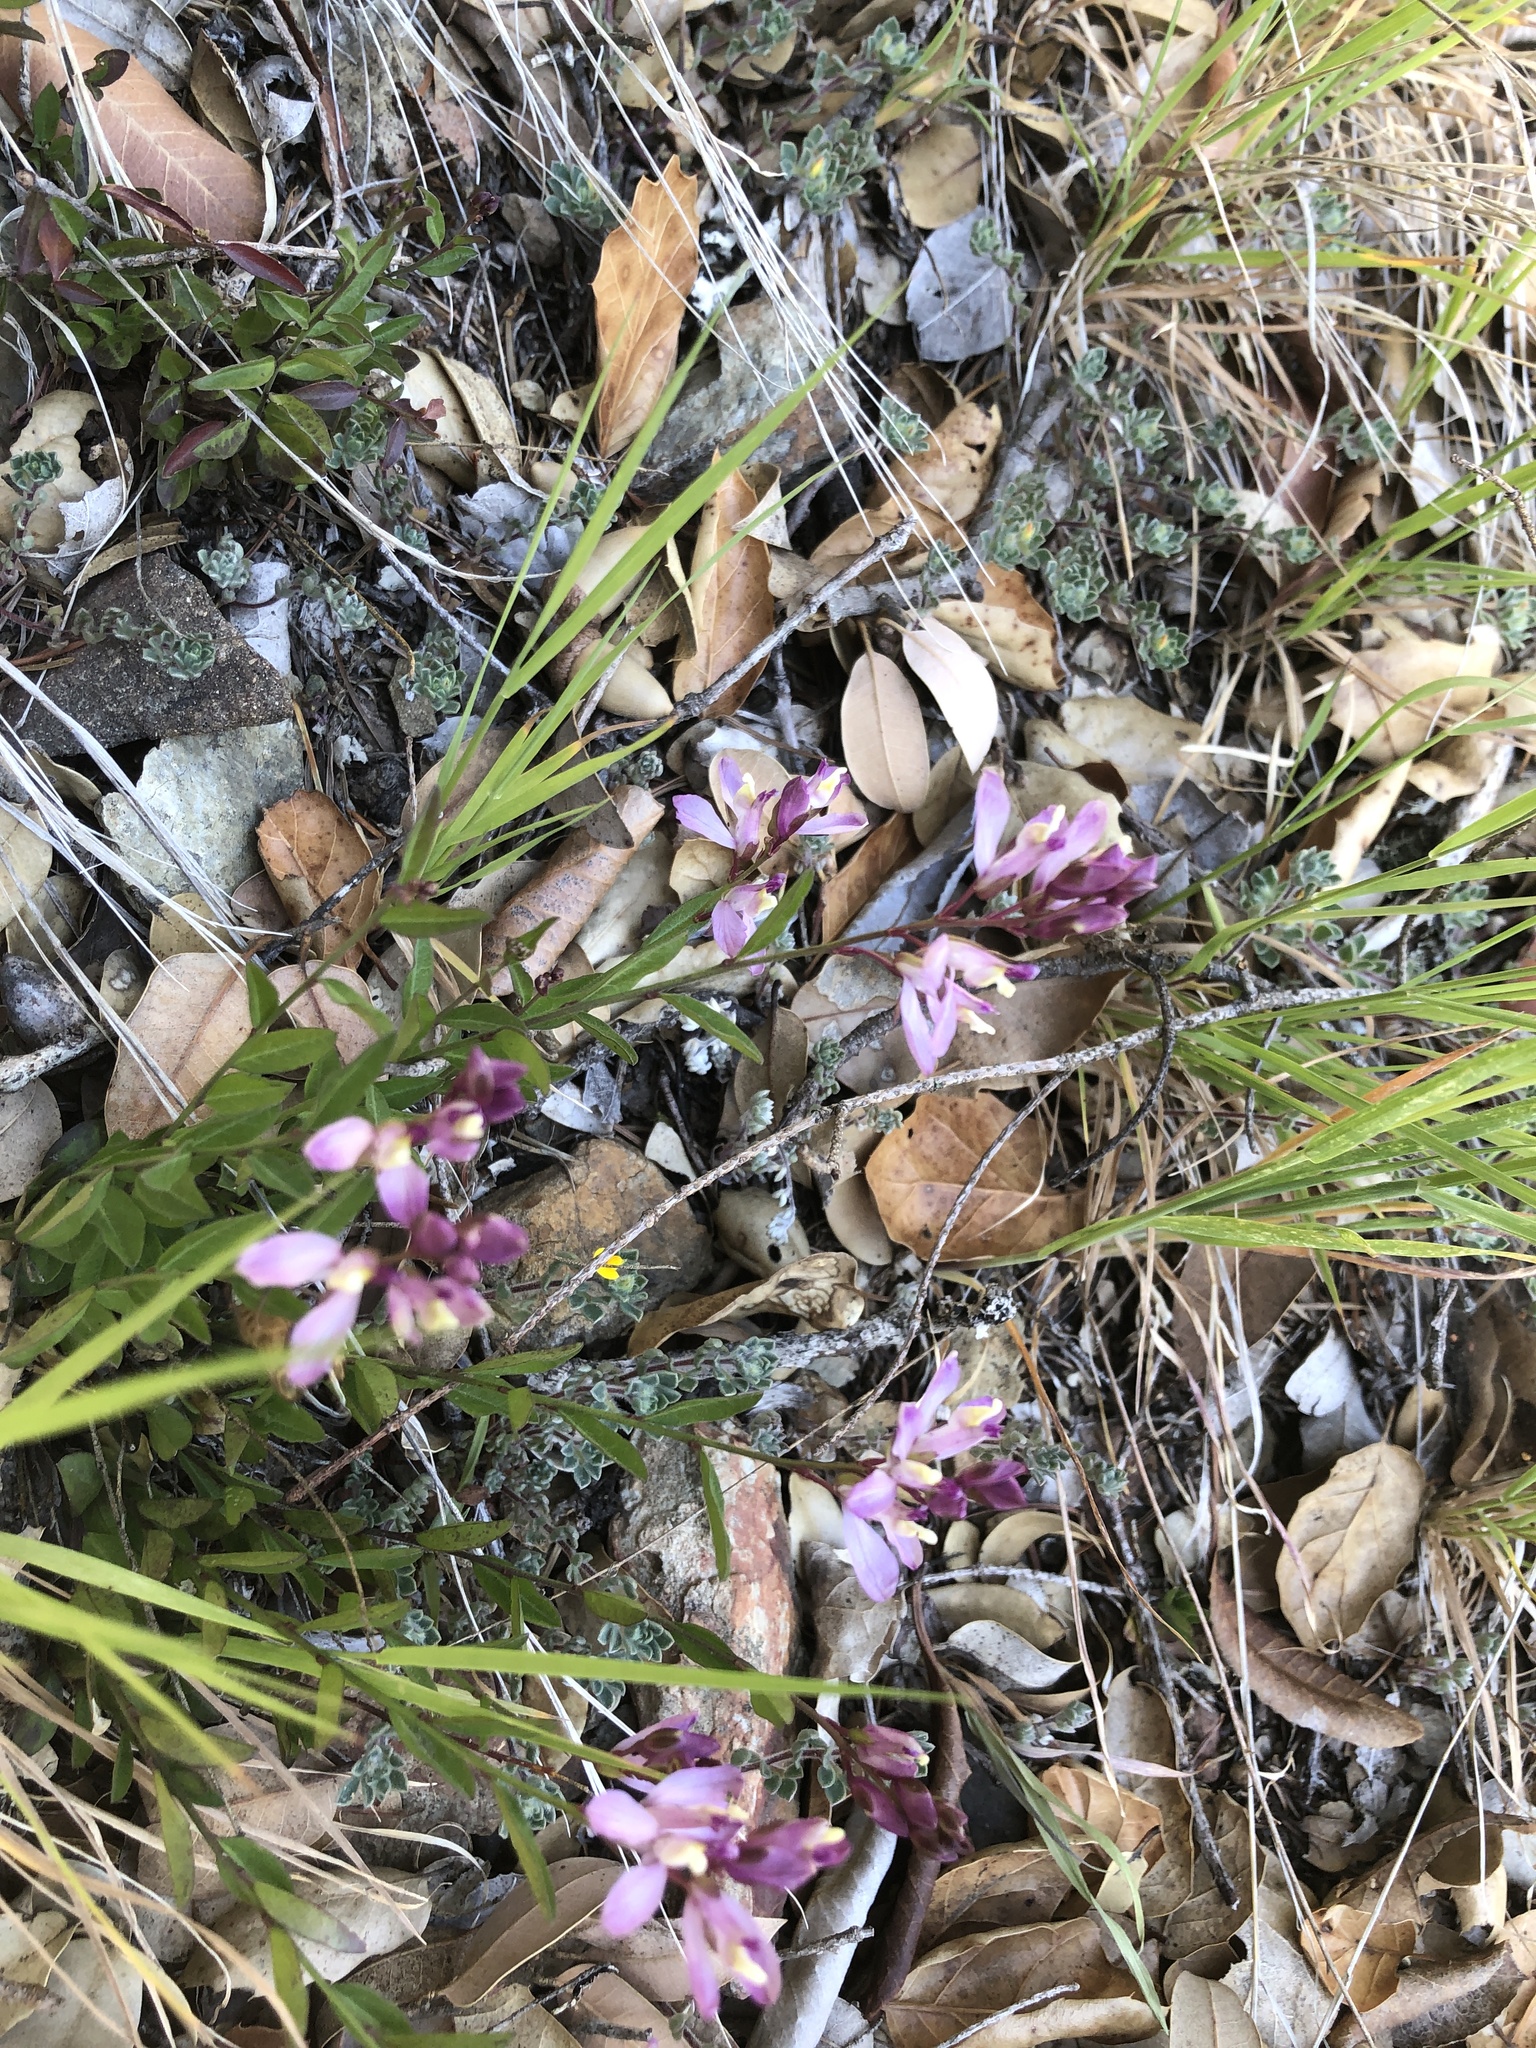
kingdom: Plantae
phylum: Tracheophyta
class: Magnoliopsida
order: Fabales
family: Polygalaceae
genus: Rhinotropis
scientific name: Rhinotropis californica
